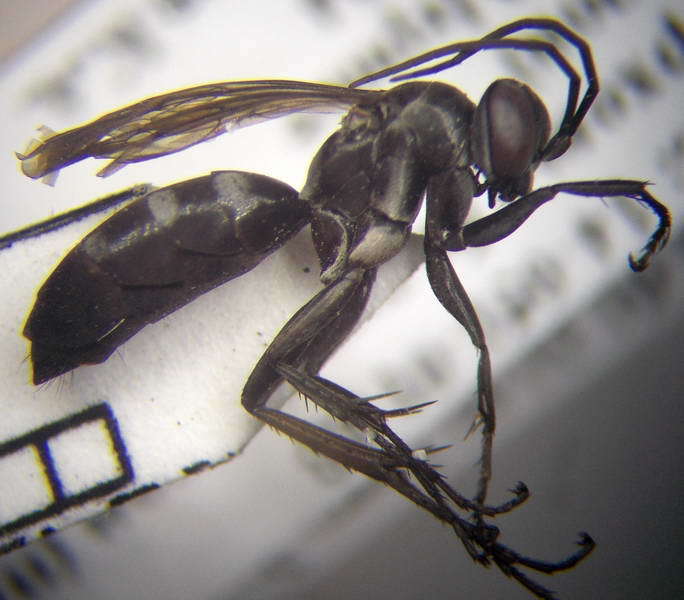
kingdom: Animalia
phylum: Arthropoda
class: Insecta
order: Hymenoptera
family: Pompilidae
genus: Aporinellus
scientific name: Aporinellus sexmaculatus
